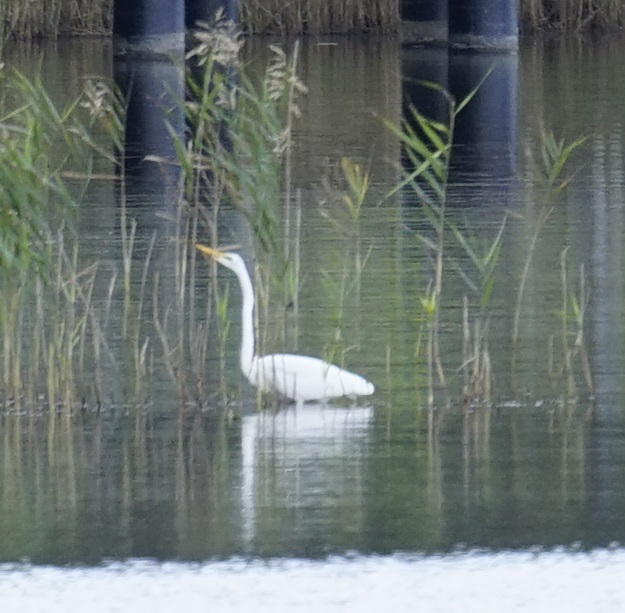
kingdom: Animalia
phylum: Chordata
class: Aves
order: Pelecaniformes
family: Ardeidae
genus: Egretta
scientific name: Egretta intermedia
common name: Intermediate egret
